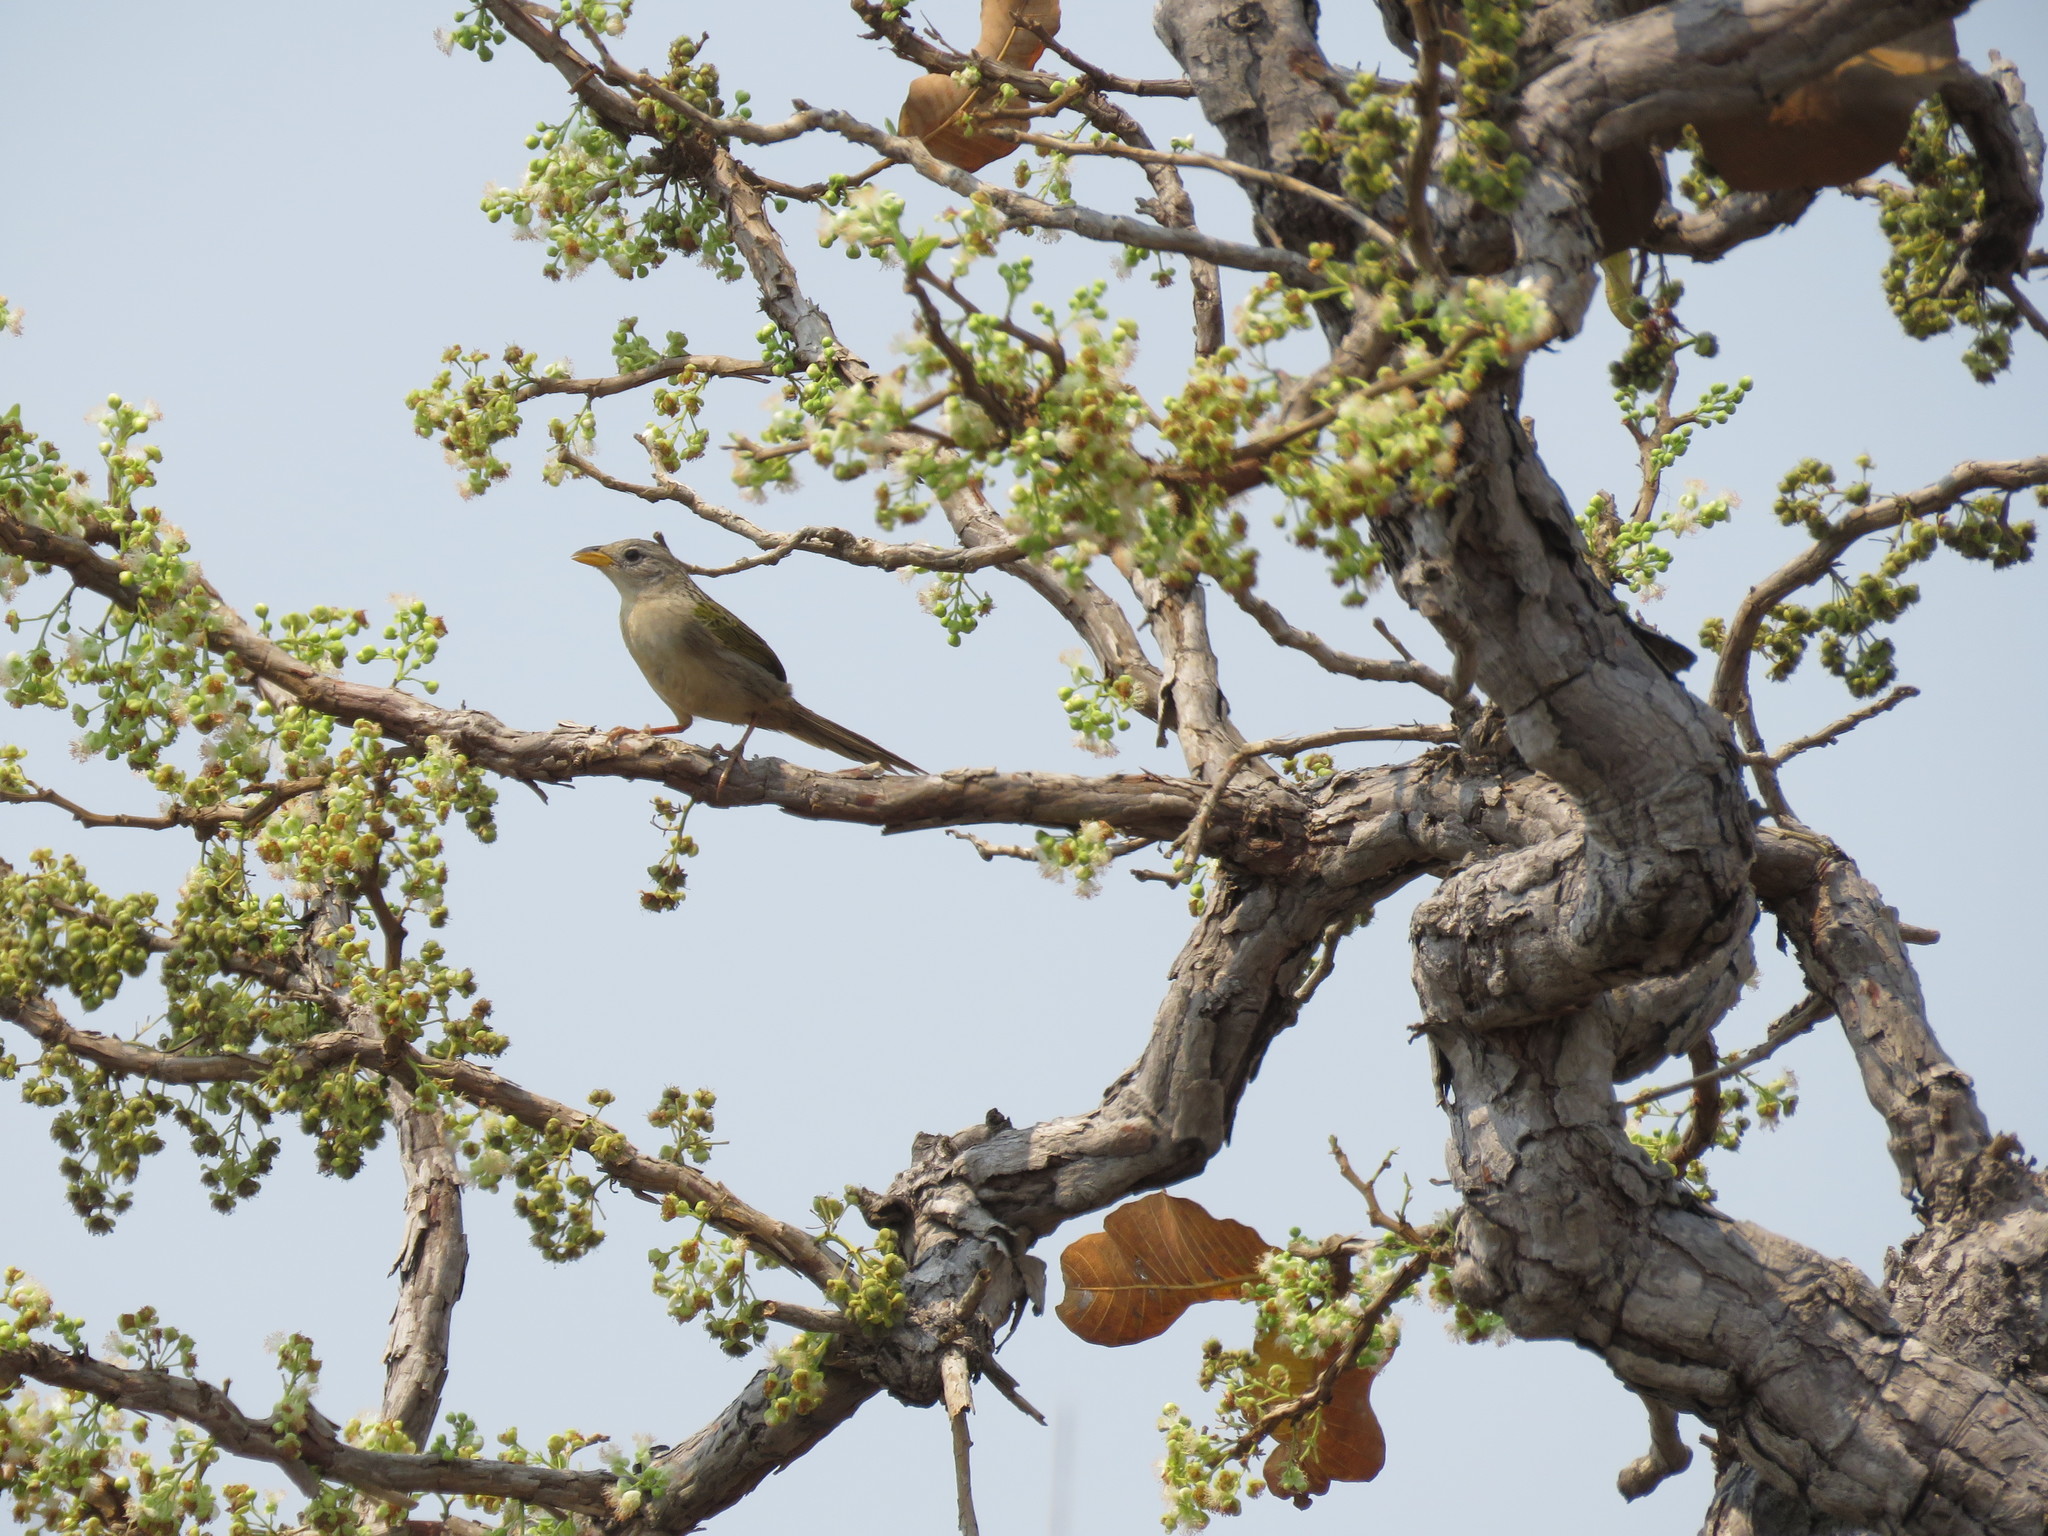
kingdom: Animalia
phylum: Chordata
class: Aves
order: Passeriformes
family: Thraupidae
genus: Emberizoides
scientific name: Emberizoides herbicola
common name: Wedge-tailed grass-finch
